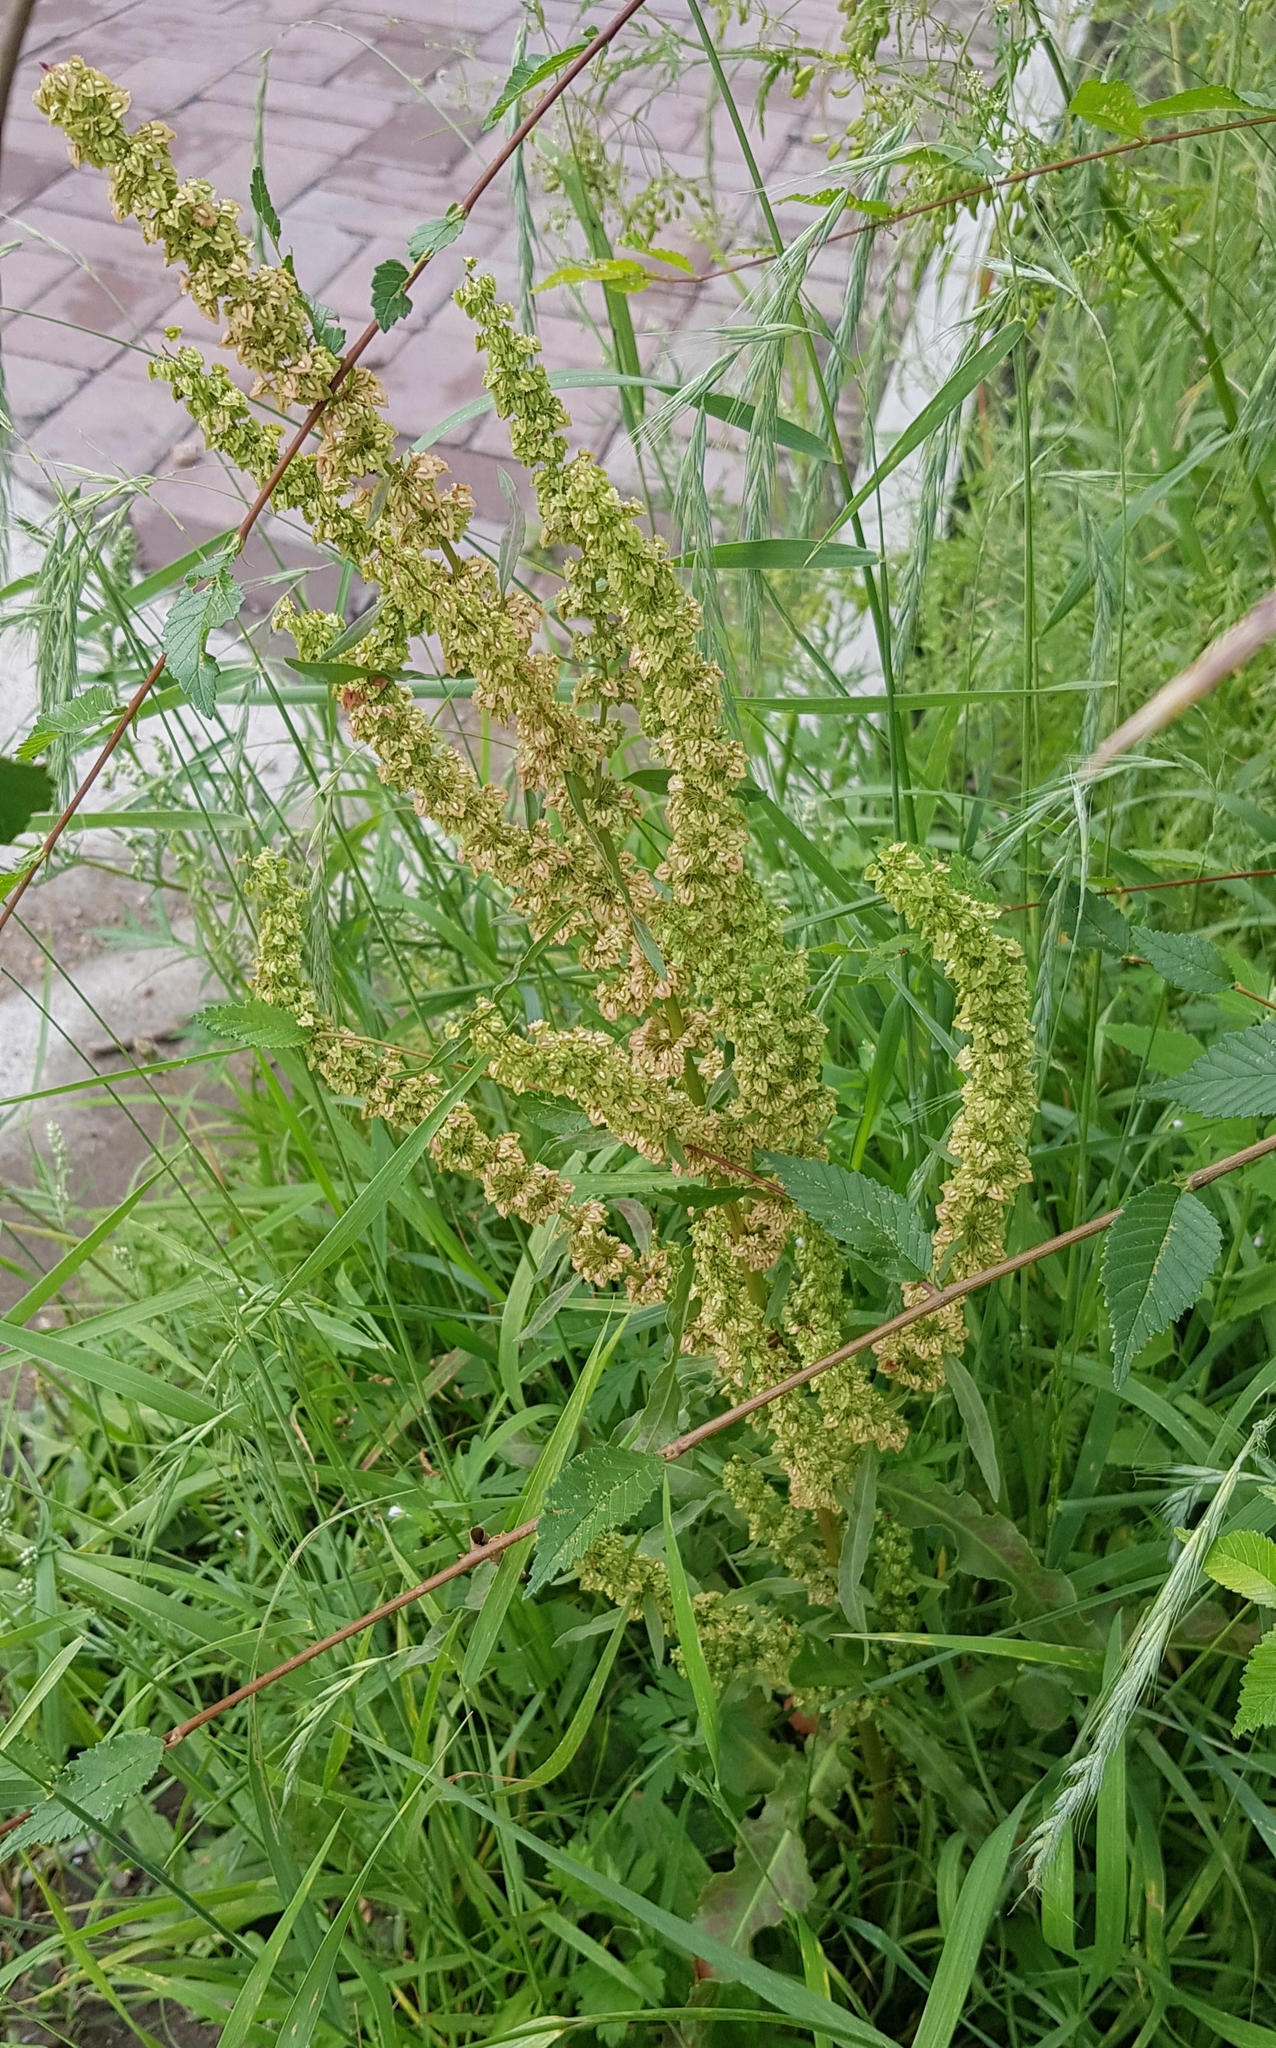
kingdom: Plantae
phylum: Tracheophyta
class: Magnoliopsida
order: Caryophyllales
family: Polygonaceae
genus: Rumex
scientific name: Rumex crispus
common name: Curled dock
